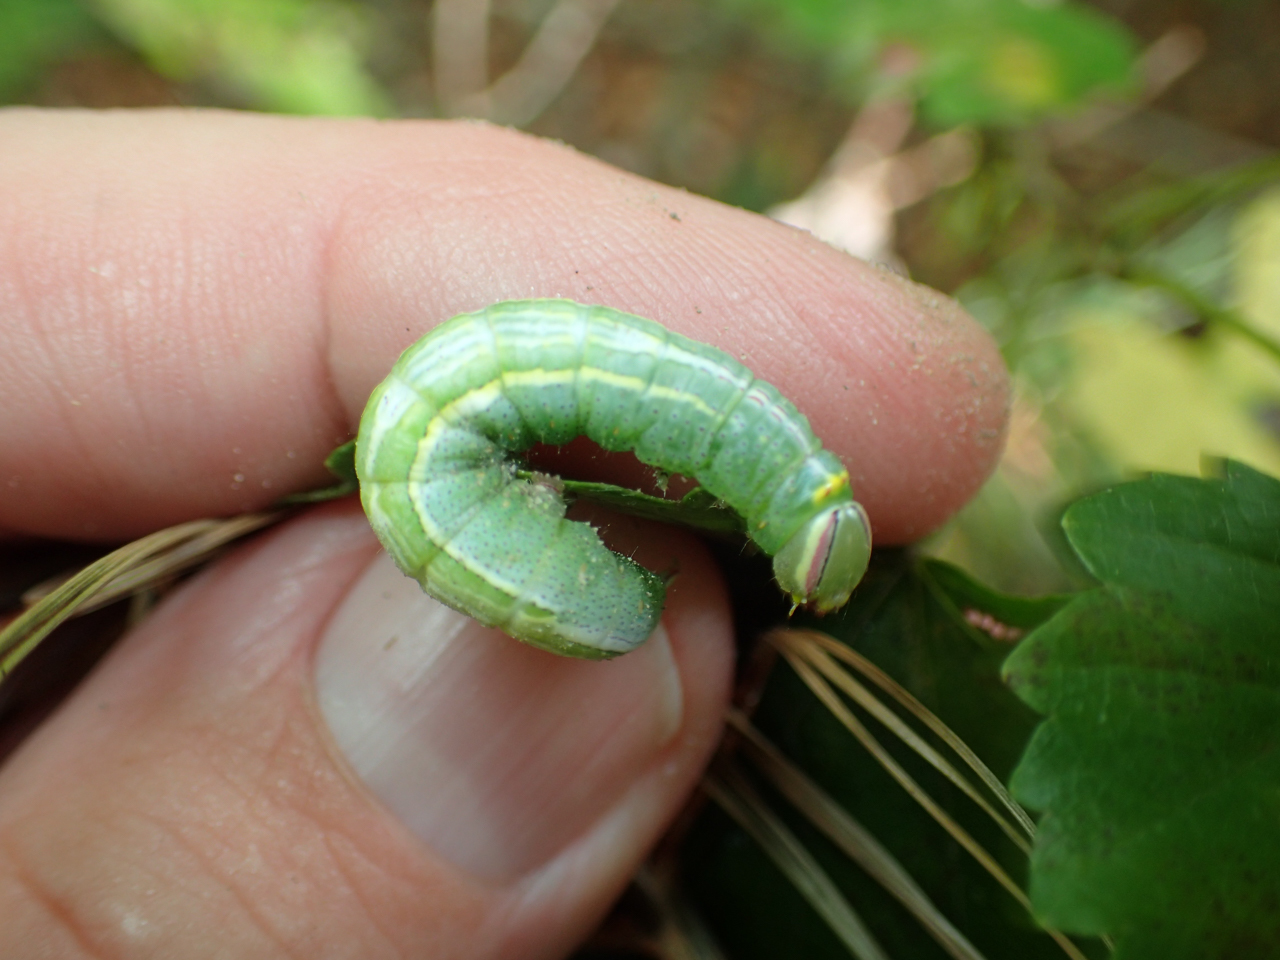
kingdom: Animalia
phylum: Arthropoda
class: Insecta
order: Lepidoptera
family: Notodontidae
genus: Disphragis
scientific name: Disphragis Cecrita guttivitta
